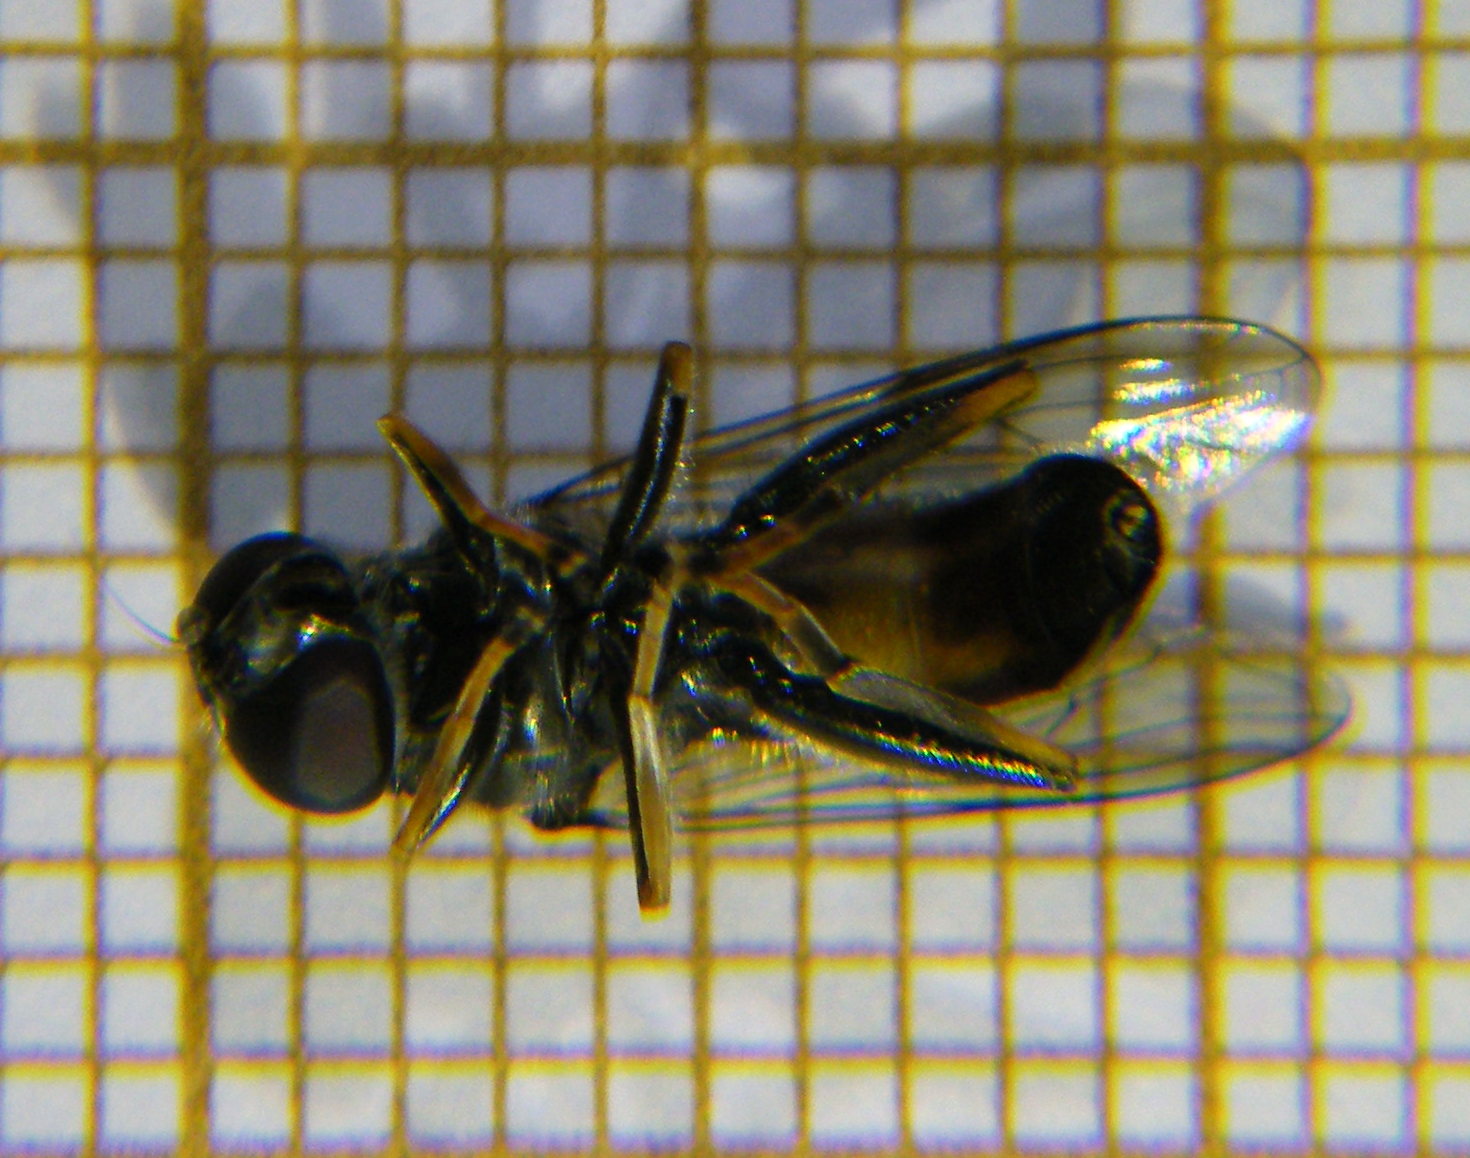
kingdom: Animalia
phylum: Arthropoda
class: Insecta
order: Diptera
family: Syrphidae
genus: Xylota
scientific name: Xylota segnis
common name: Brown-toed forest fly
